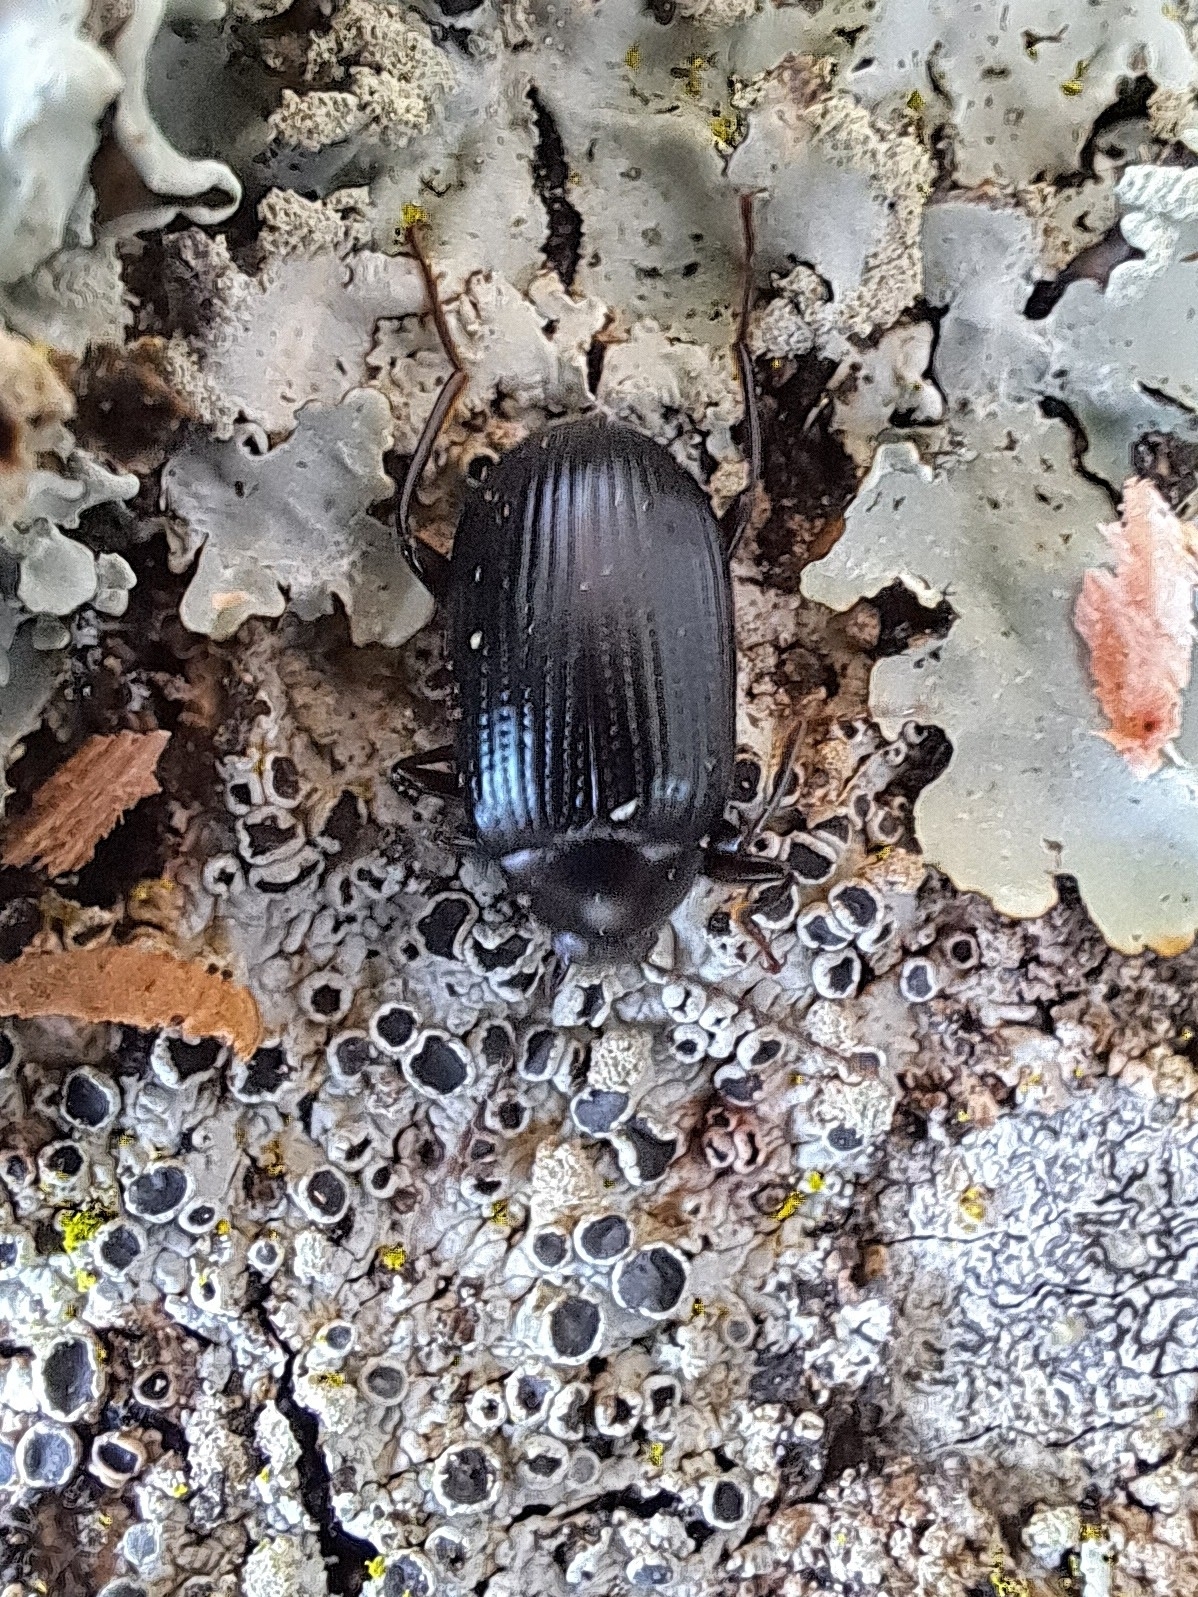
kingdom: Animalia
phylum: Arthropoda
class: Insecta
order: Coleoptera
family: Tenebrionidae
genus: Amarygmus
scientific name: Amarygmus
